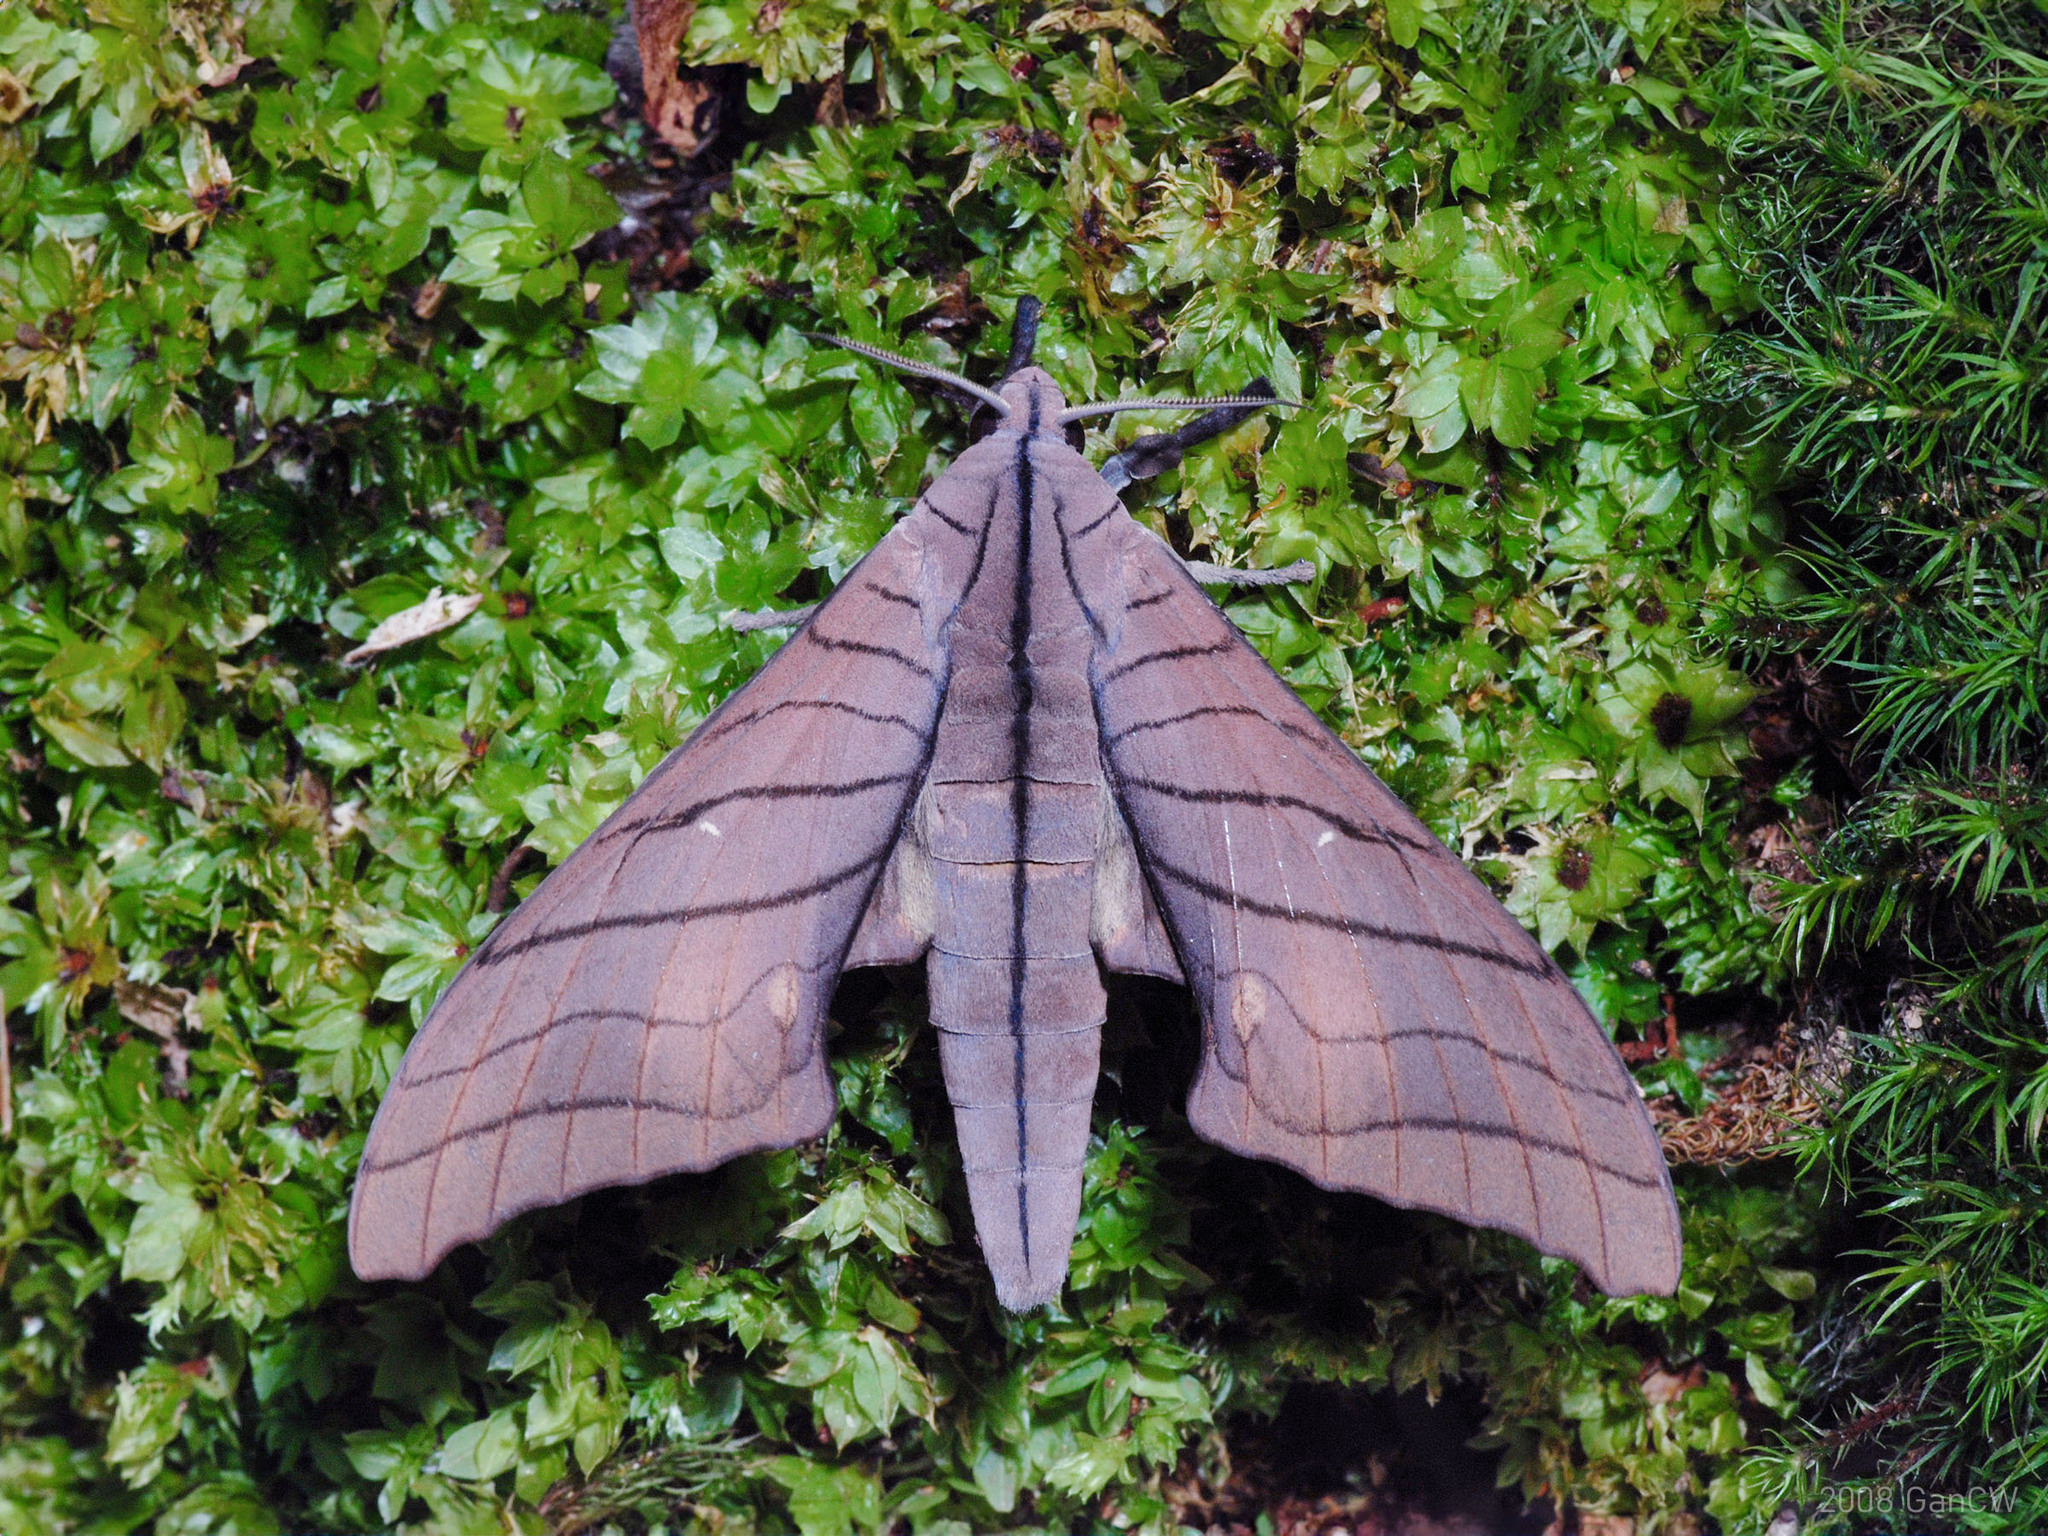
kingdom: Animalia
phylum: Arthropoda
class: Insecta
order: Lepidoptera
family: Sphingidae
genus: Marumba
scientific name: Marumba tigrina
